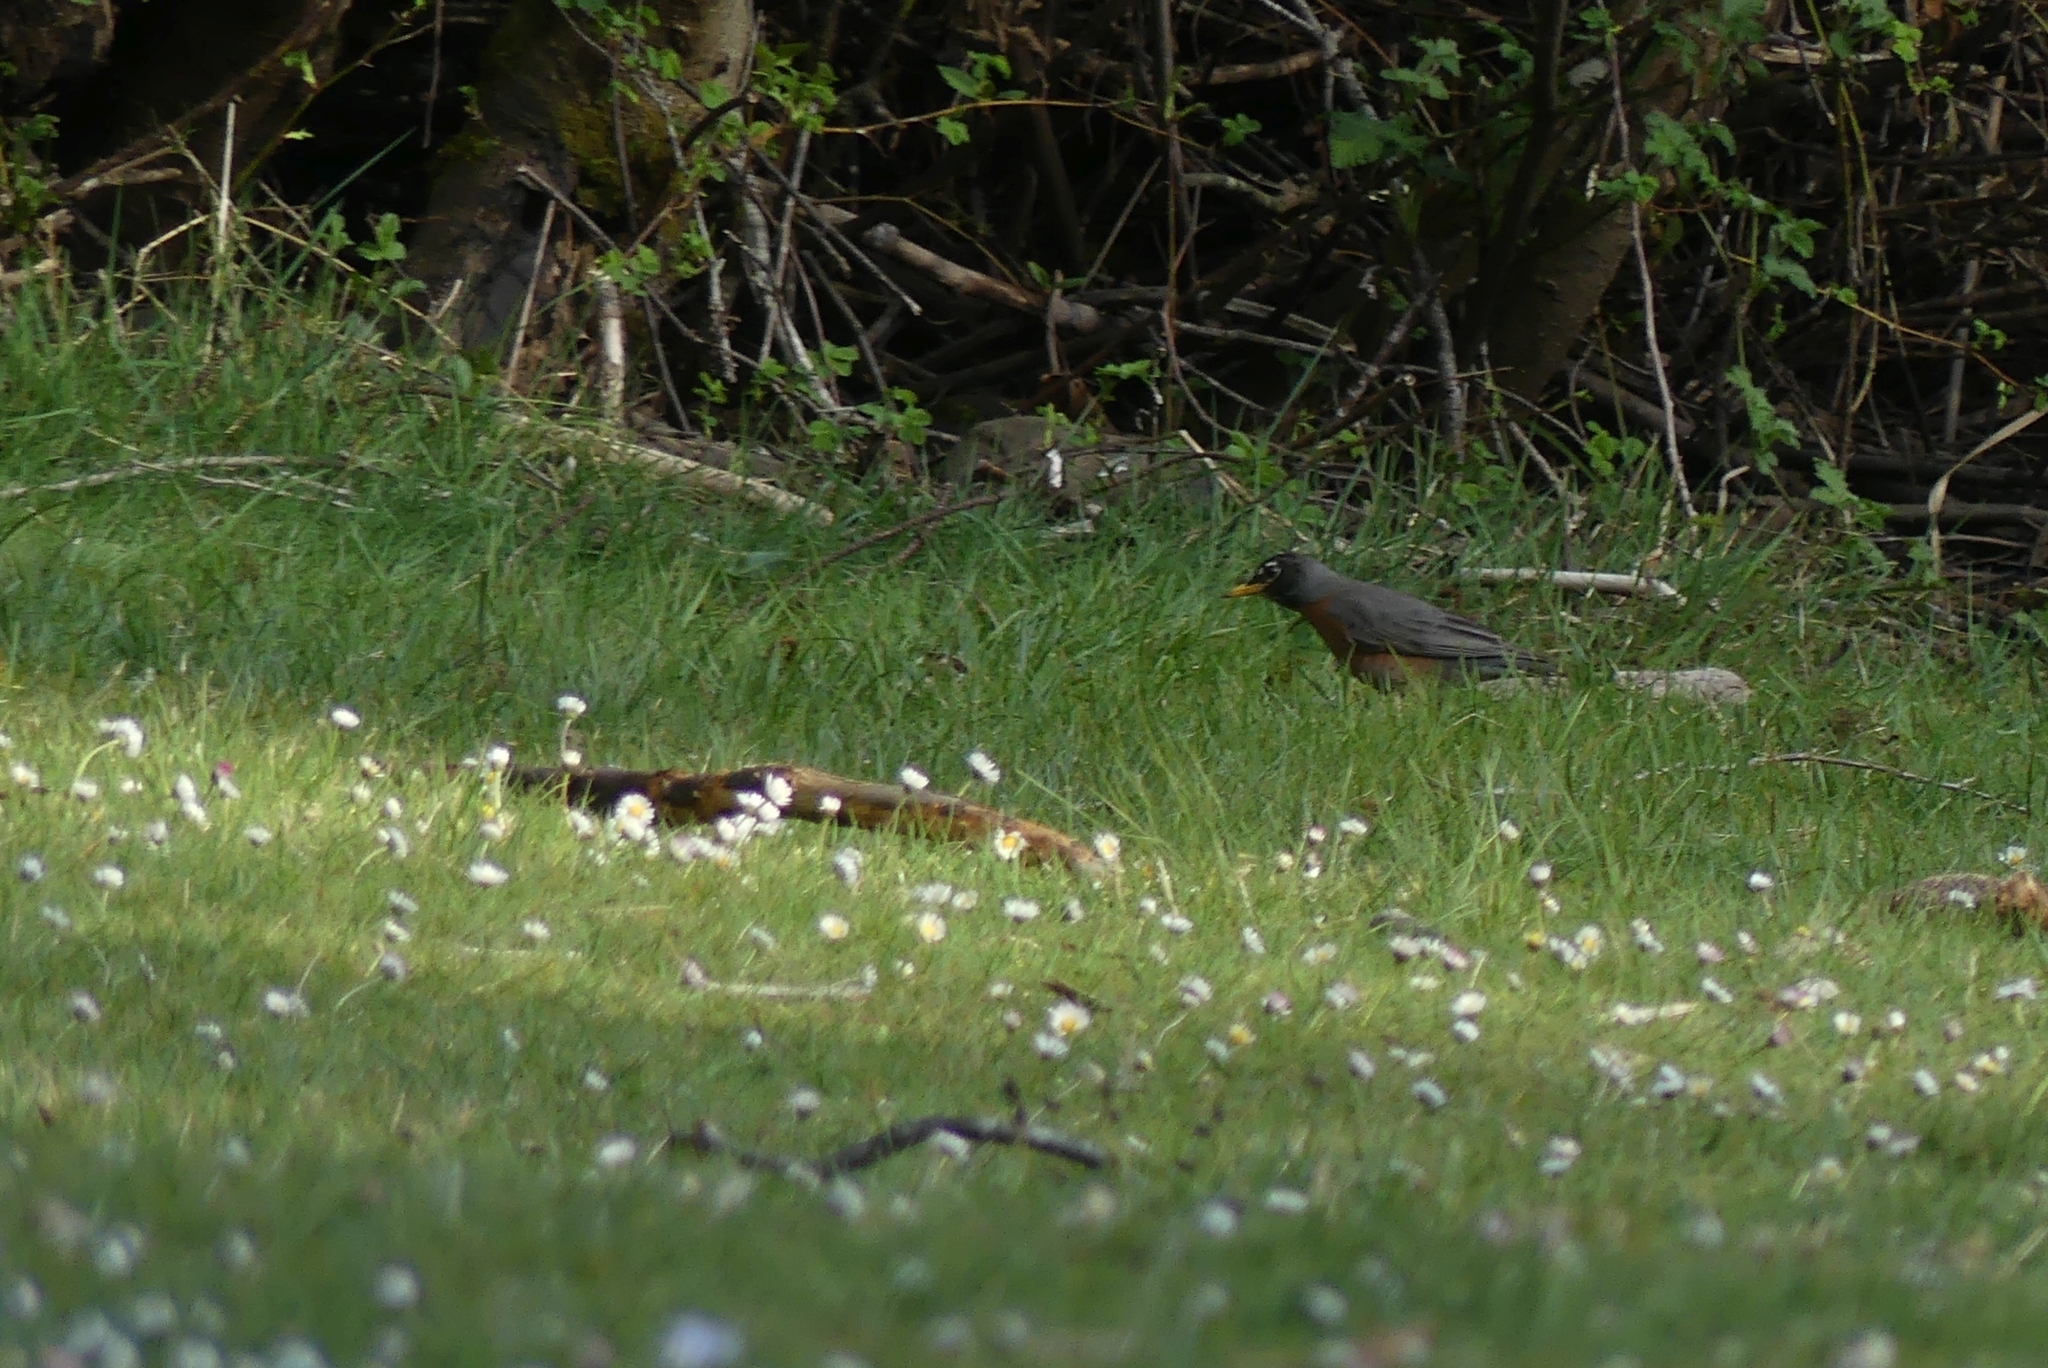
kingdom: Animalia
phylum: Chordata
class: Aves
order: Passeriformes
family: Turdidae
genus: Turdus
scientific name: Turdus migratorius
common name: American robin
